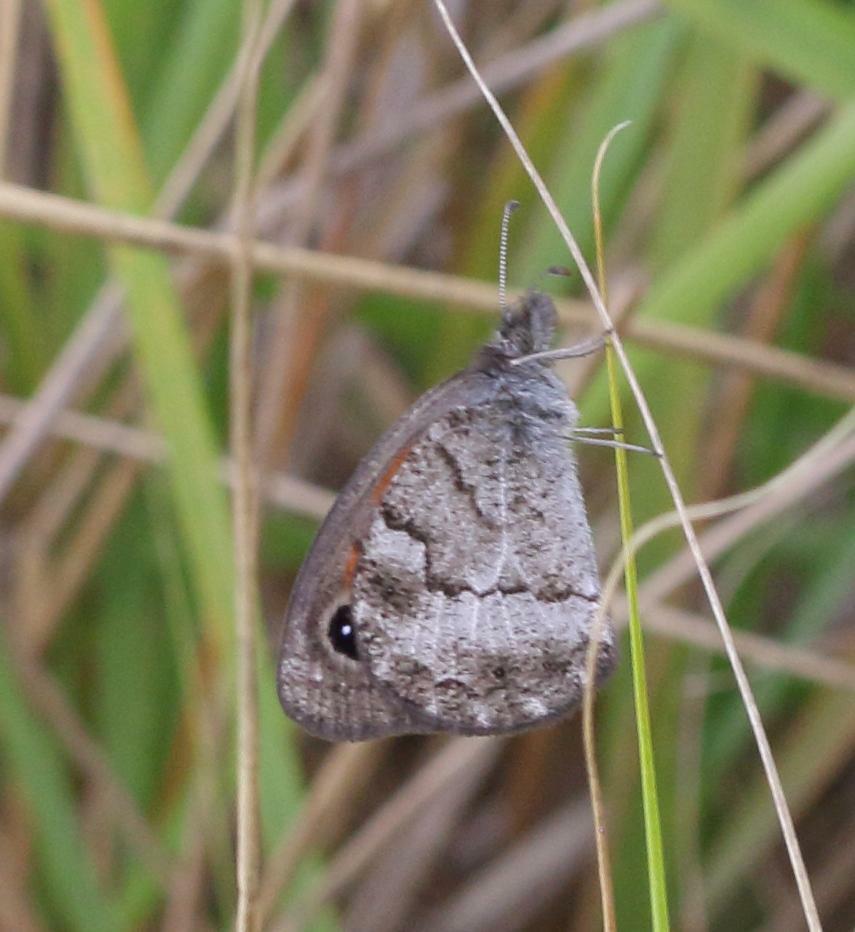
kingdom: Animalia
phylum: Arthropoda
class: Insecta
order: Lepidoptera
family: Nymphalidae
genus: Pseudonympha
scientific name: Pseudonympha magus
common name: Silver-bottom brown
